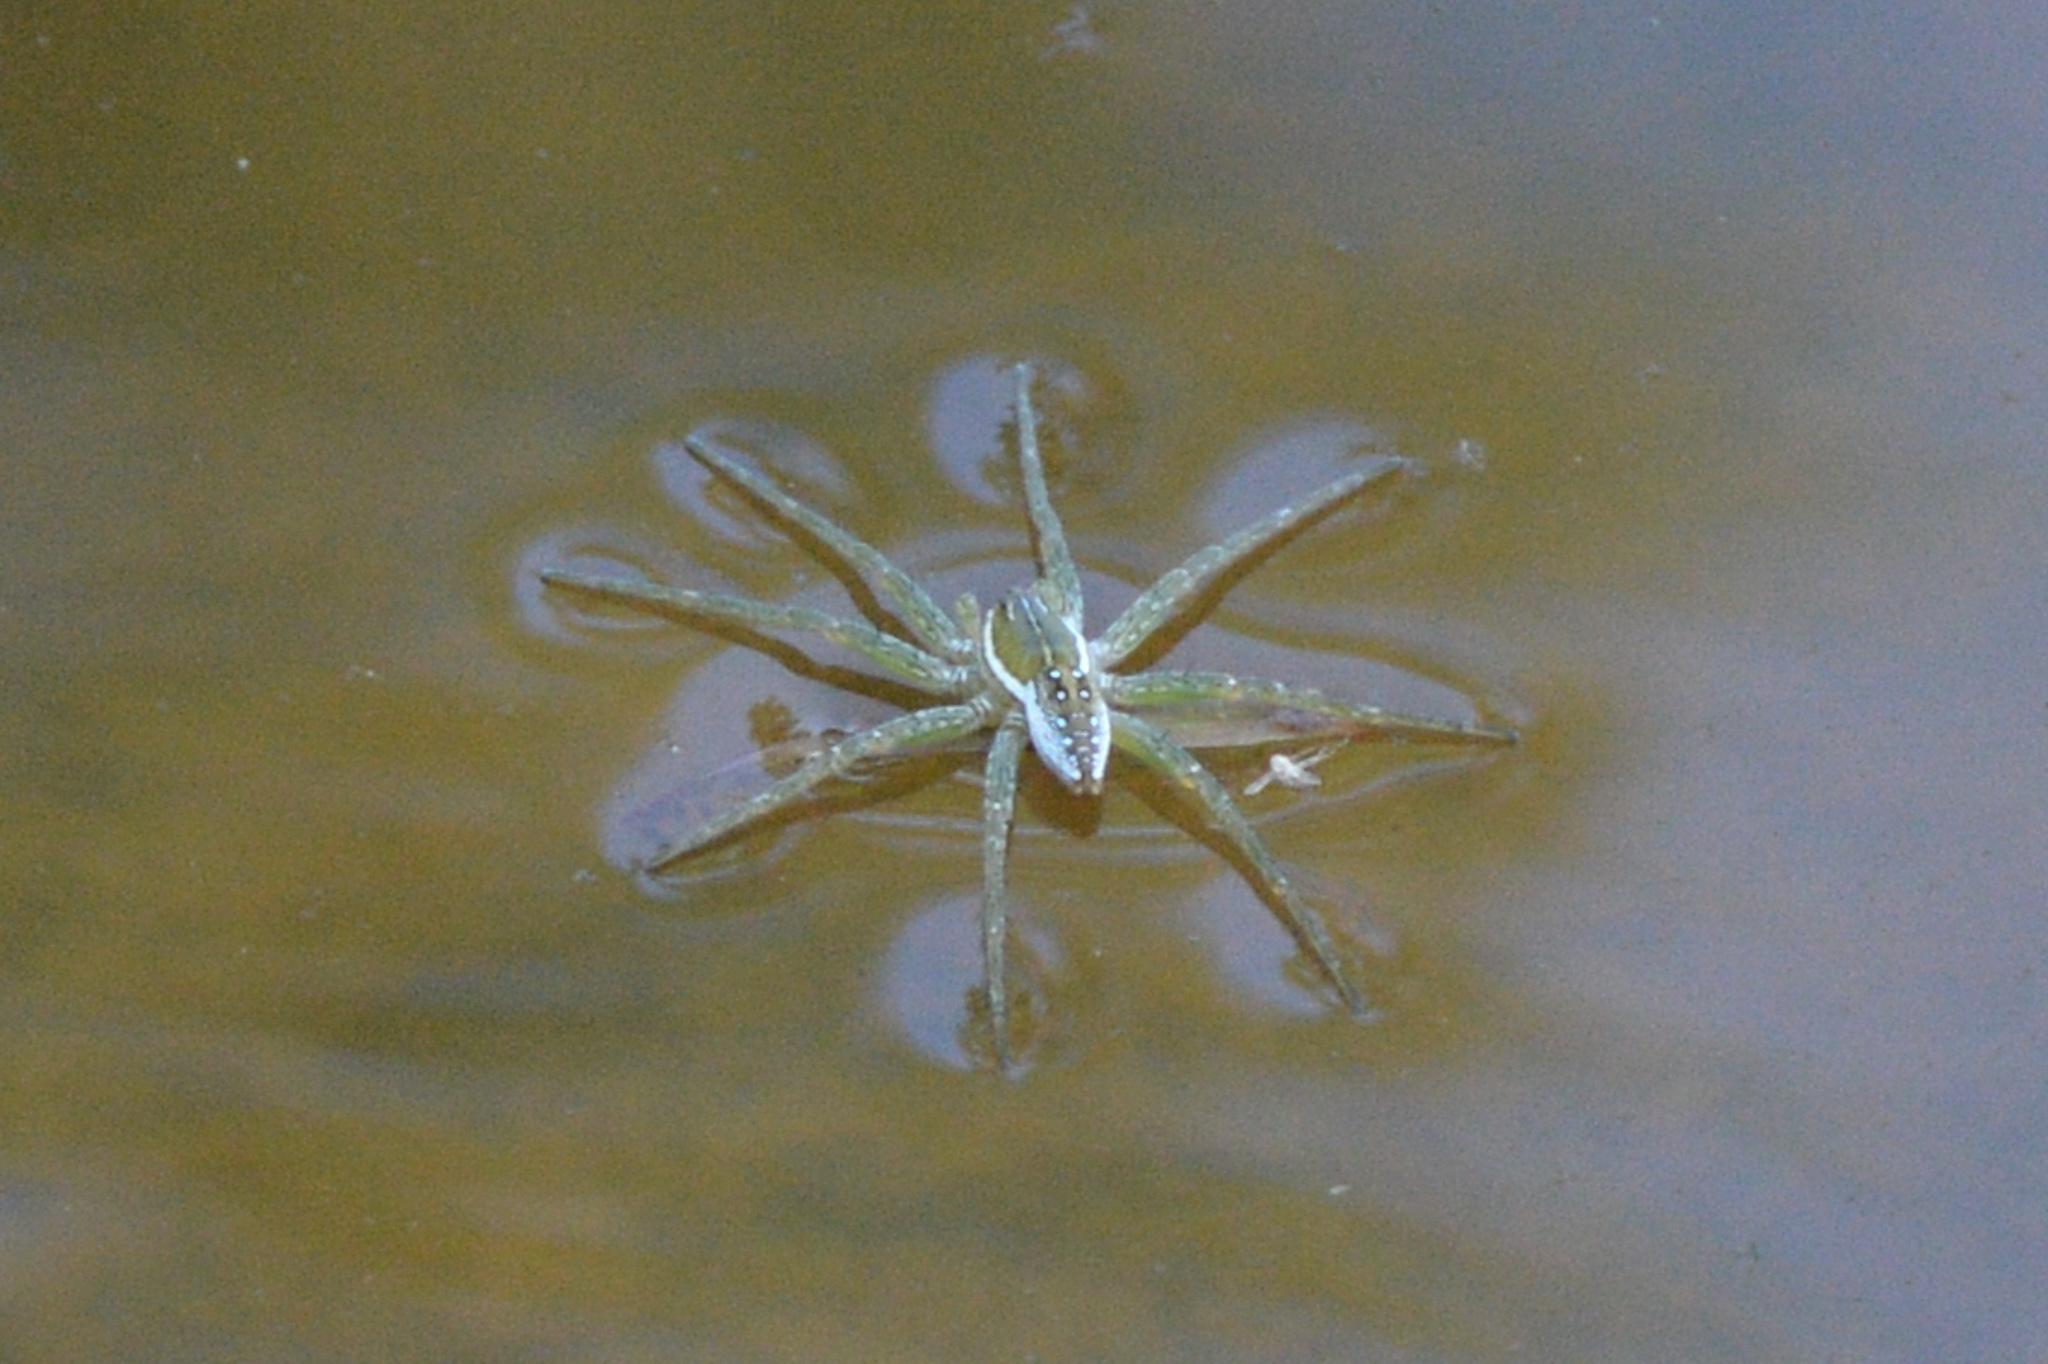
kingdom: Animalia
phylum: Arthropoda
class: Arachnida
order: Araneae
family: Pisauridae
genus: Dolomedes
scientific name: Dolomedes triton
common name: Six-spotted fishing spider
